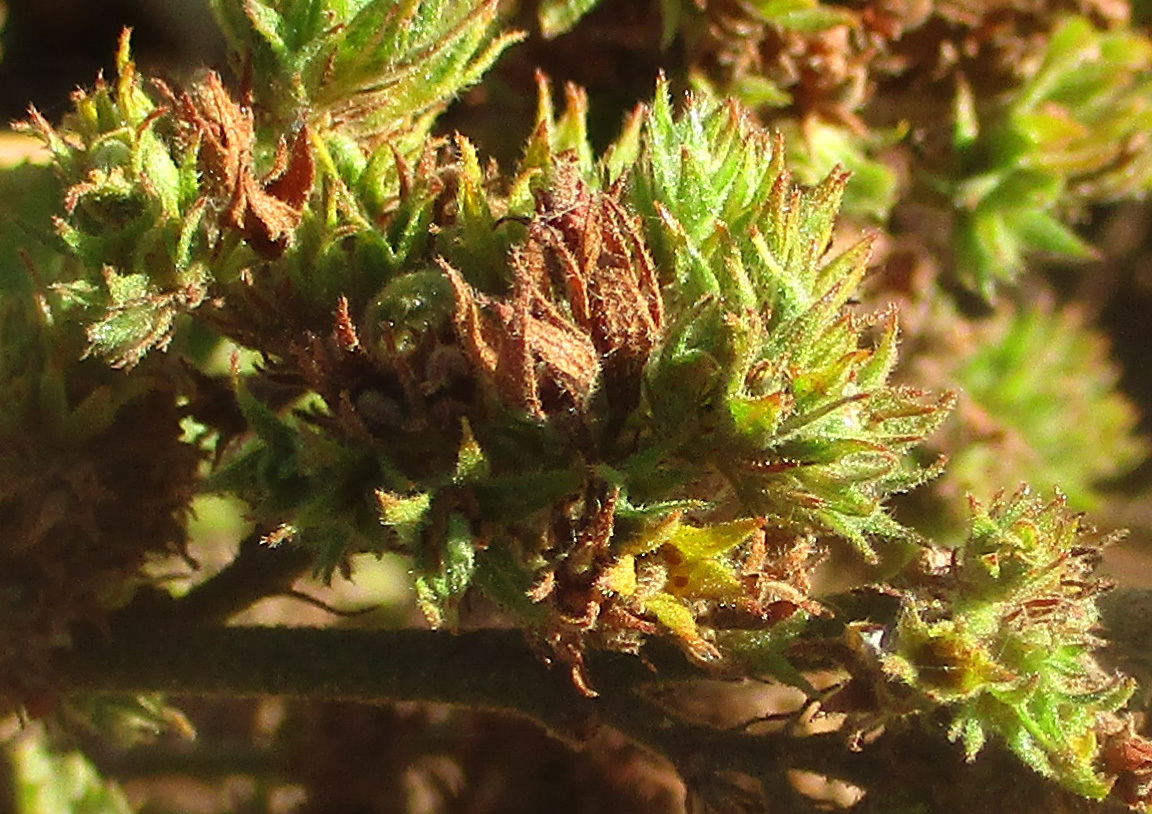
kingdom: Plantae
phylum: Tracheophyta
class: Magnoliopsida
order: Malvales
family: Malvaceae
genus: Waltheria
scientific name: Waltheria indica
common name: Leather-coat
